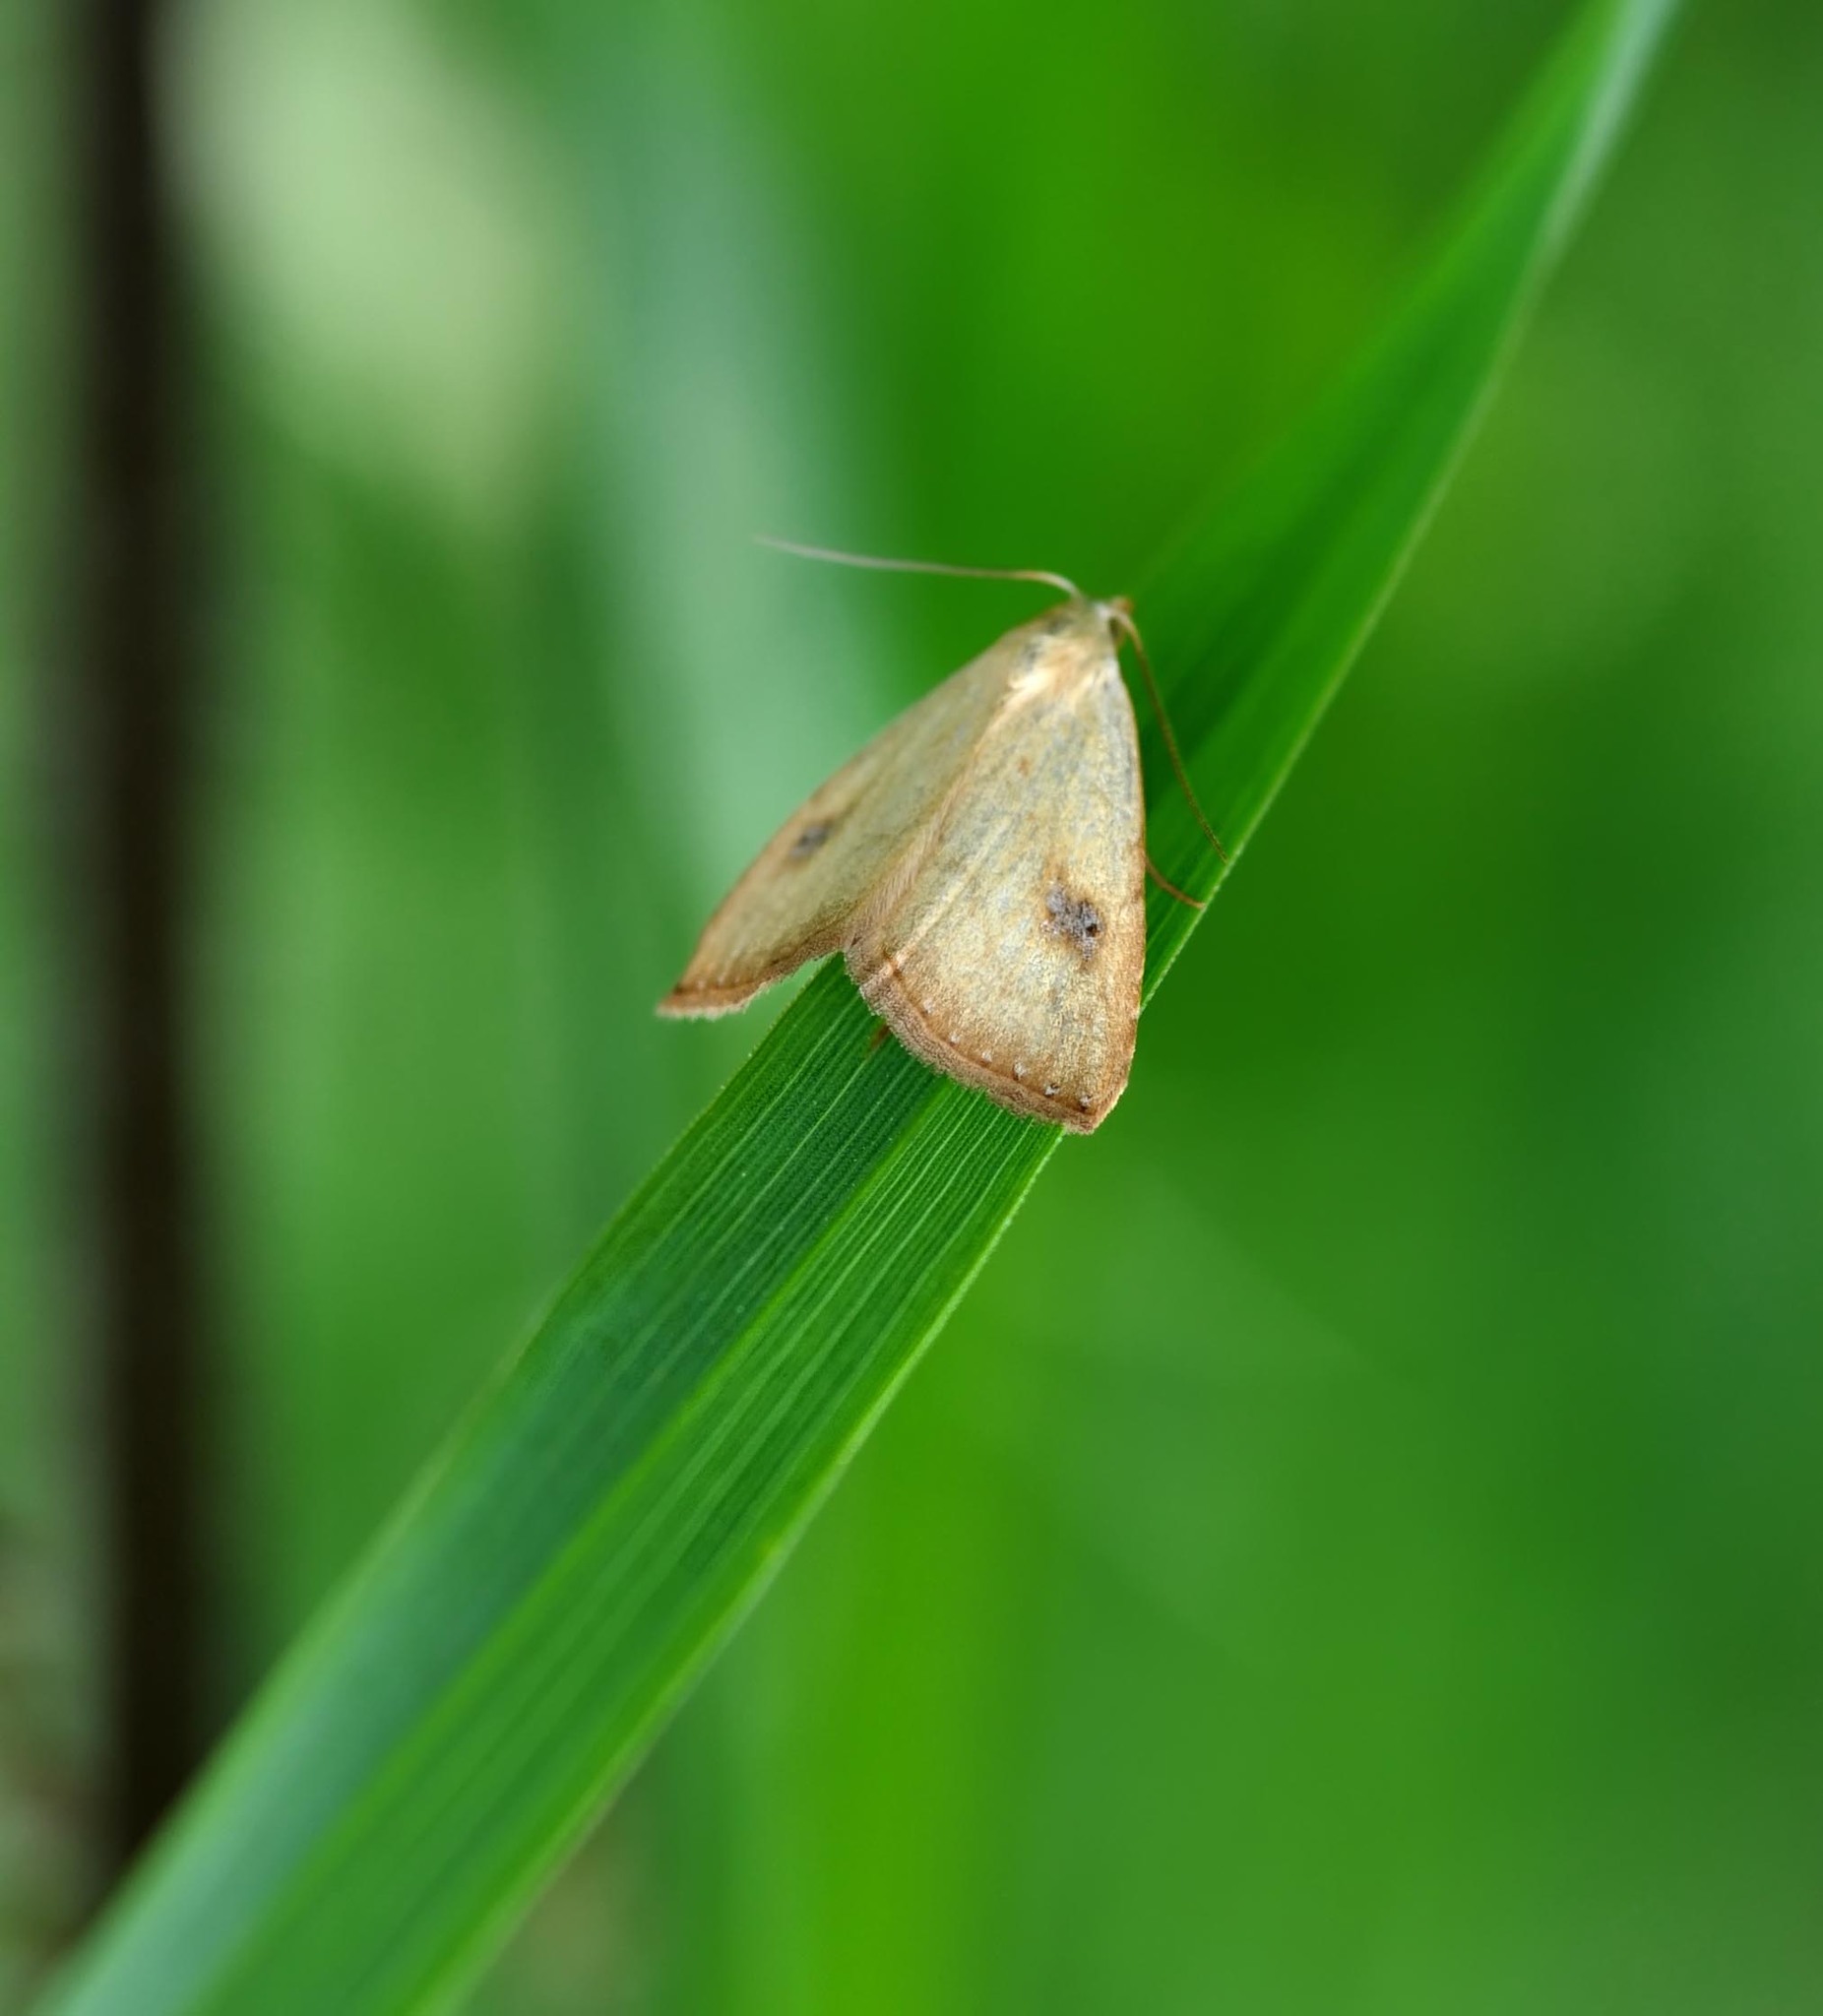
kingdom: Animalia
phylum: Arthropoda
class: Insecta
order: Lepidoptera
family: Erebidae
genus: Rivula
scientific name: Rivula sericealis
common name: Straw dot
